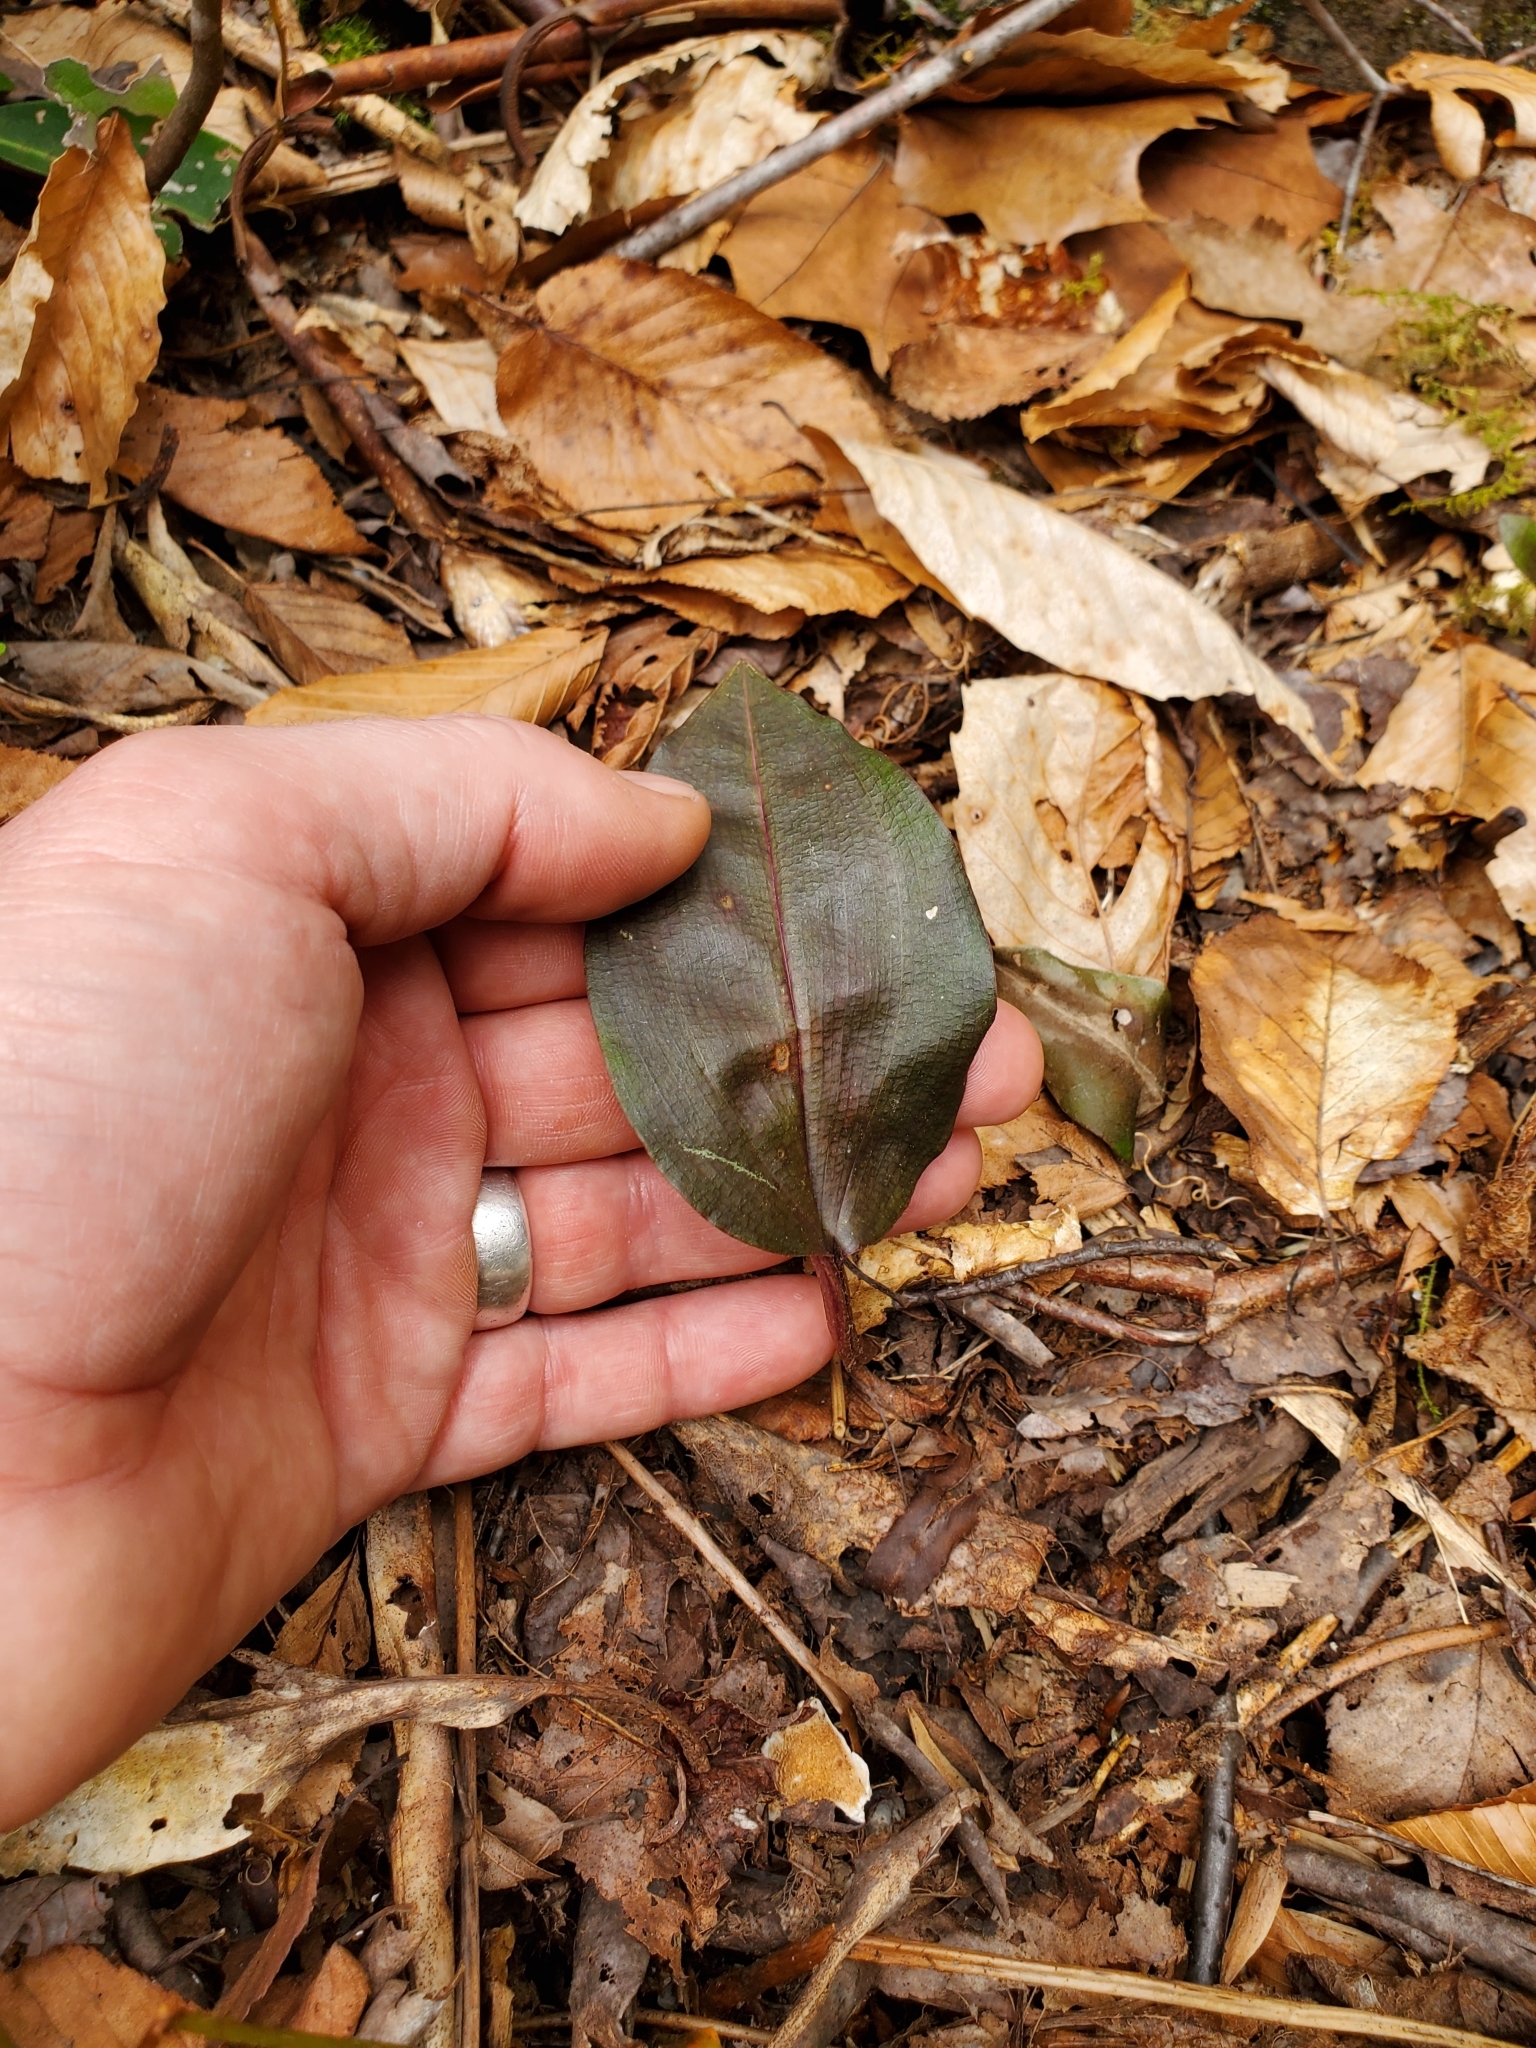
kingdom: Plantae
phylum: Tracheophyta
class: Liliopsida
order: Asparagales
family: Orchidaceae
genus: Tipularia
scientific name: Tipularia discolor
